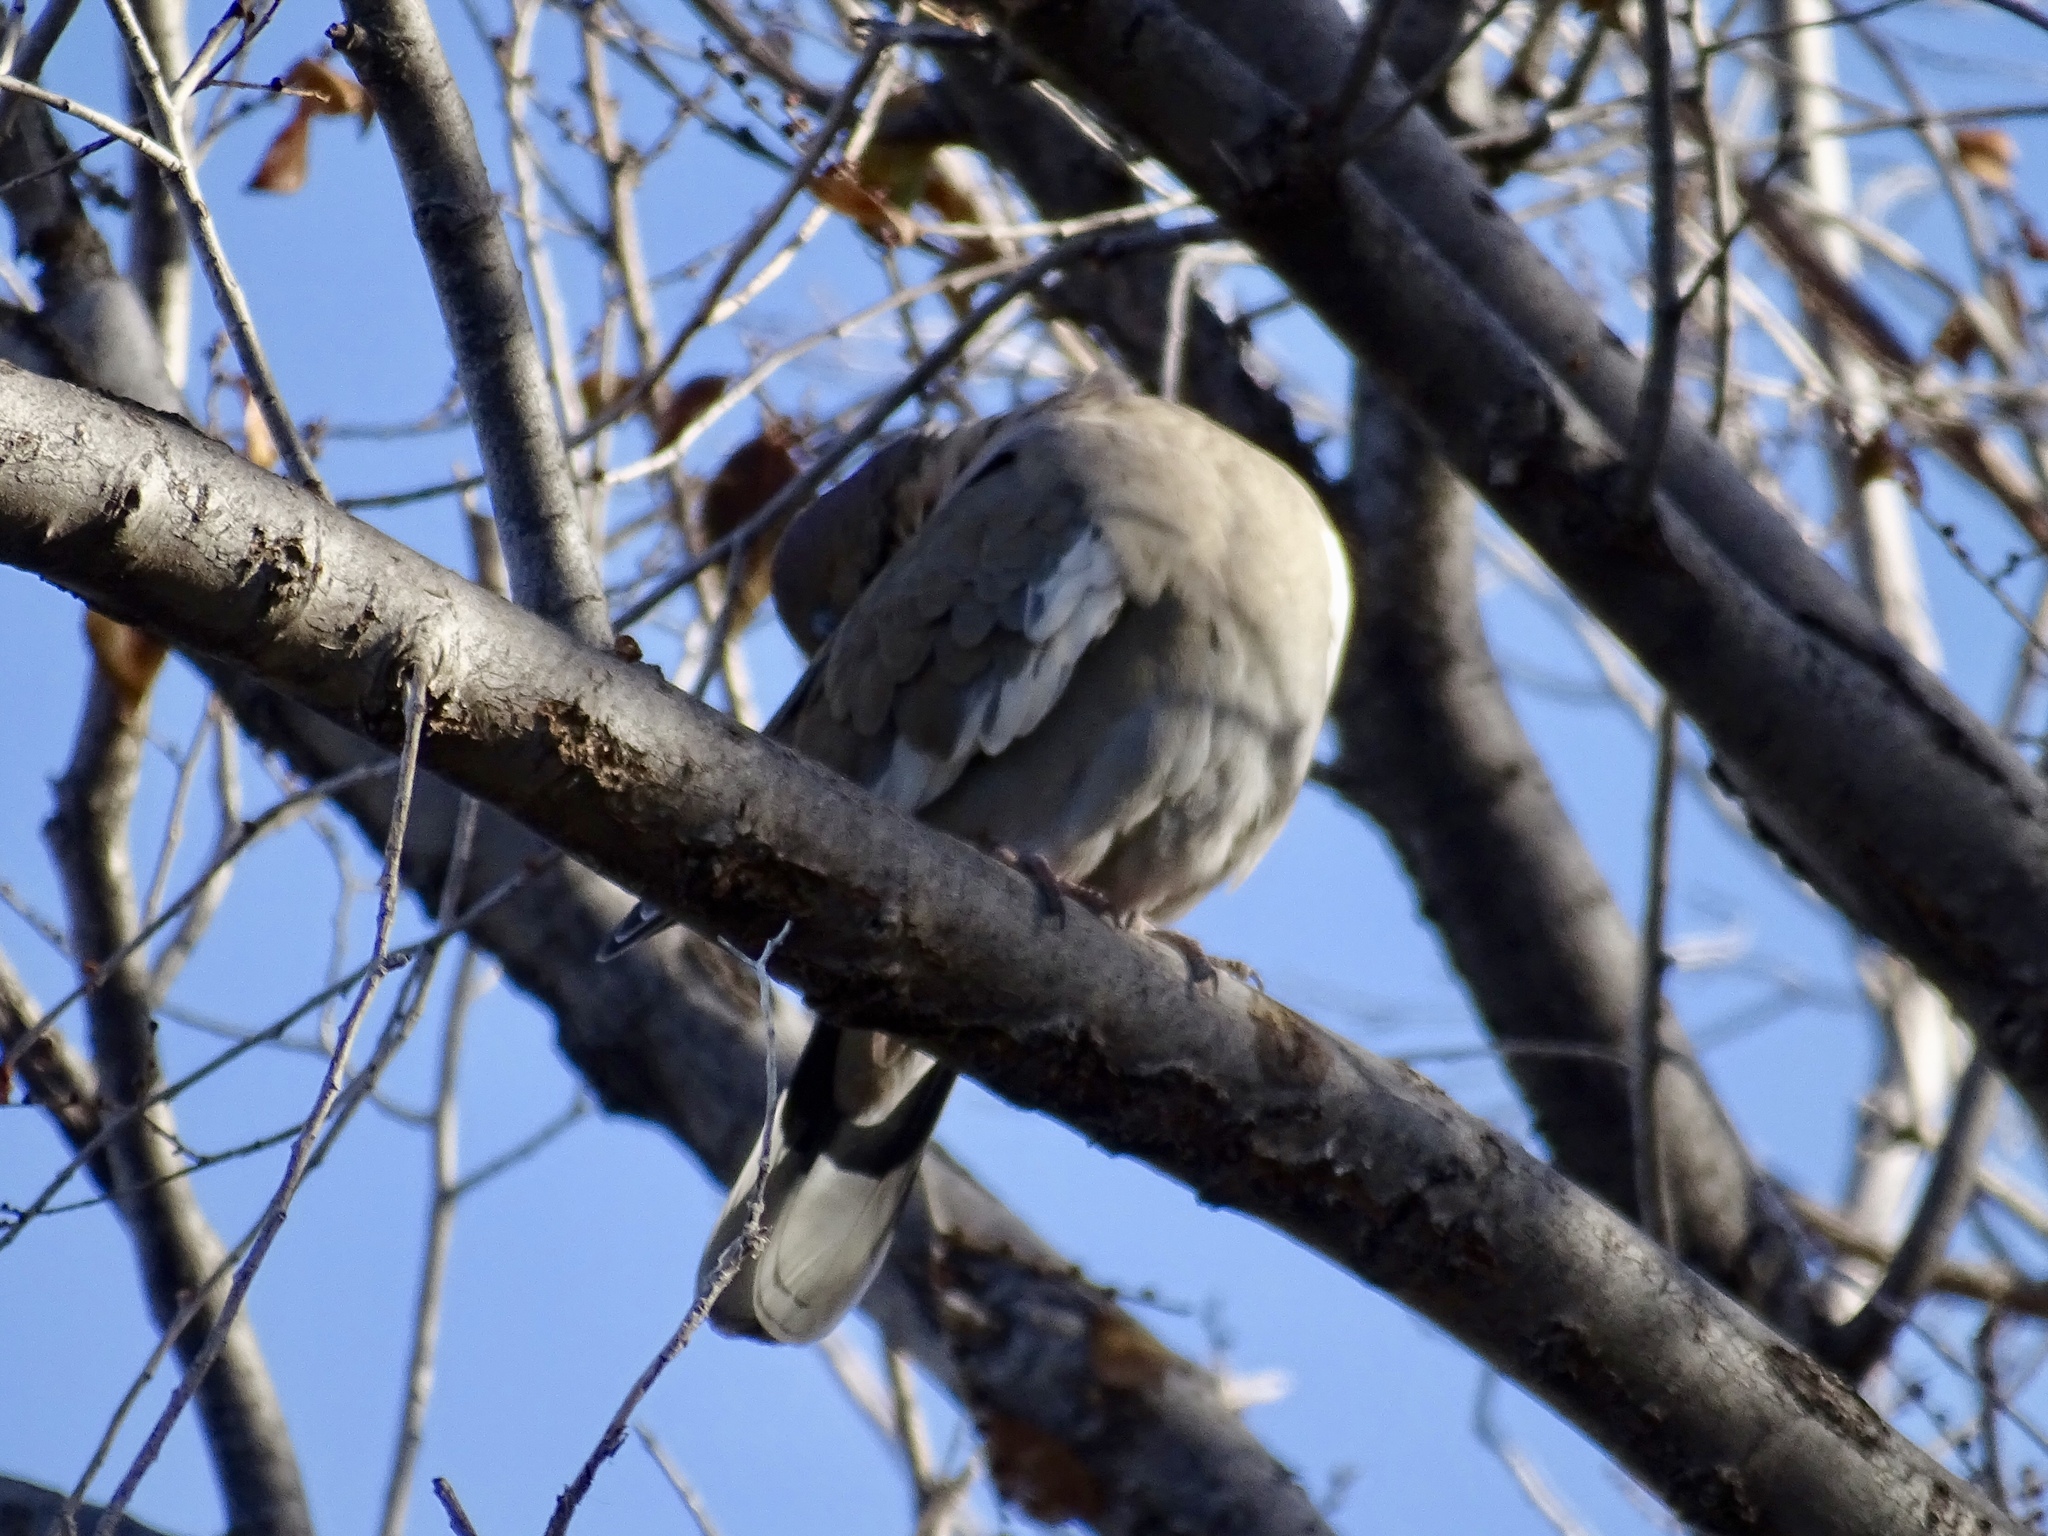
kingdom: Animalia
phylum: Chordata
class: Aves
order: Columbiformes
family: Columbidae
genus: Zenaida
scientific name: Zenaida asiatica
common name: White-winged dove
